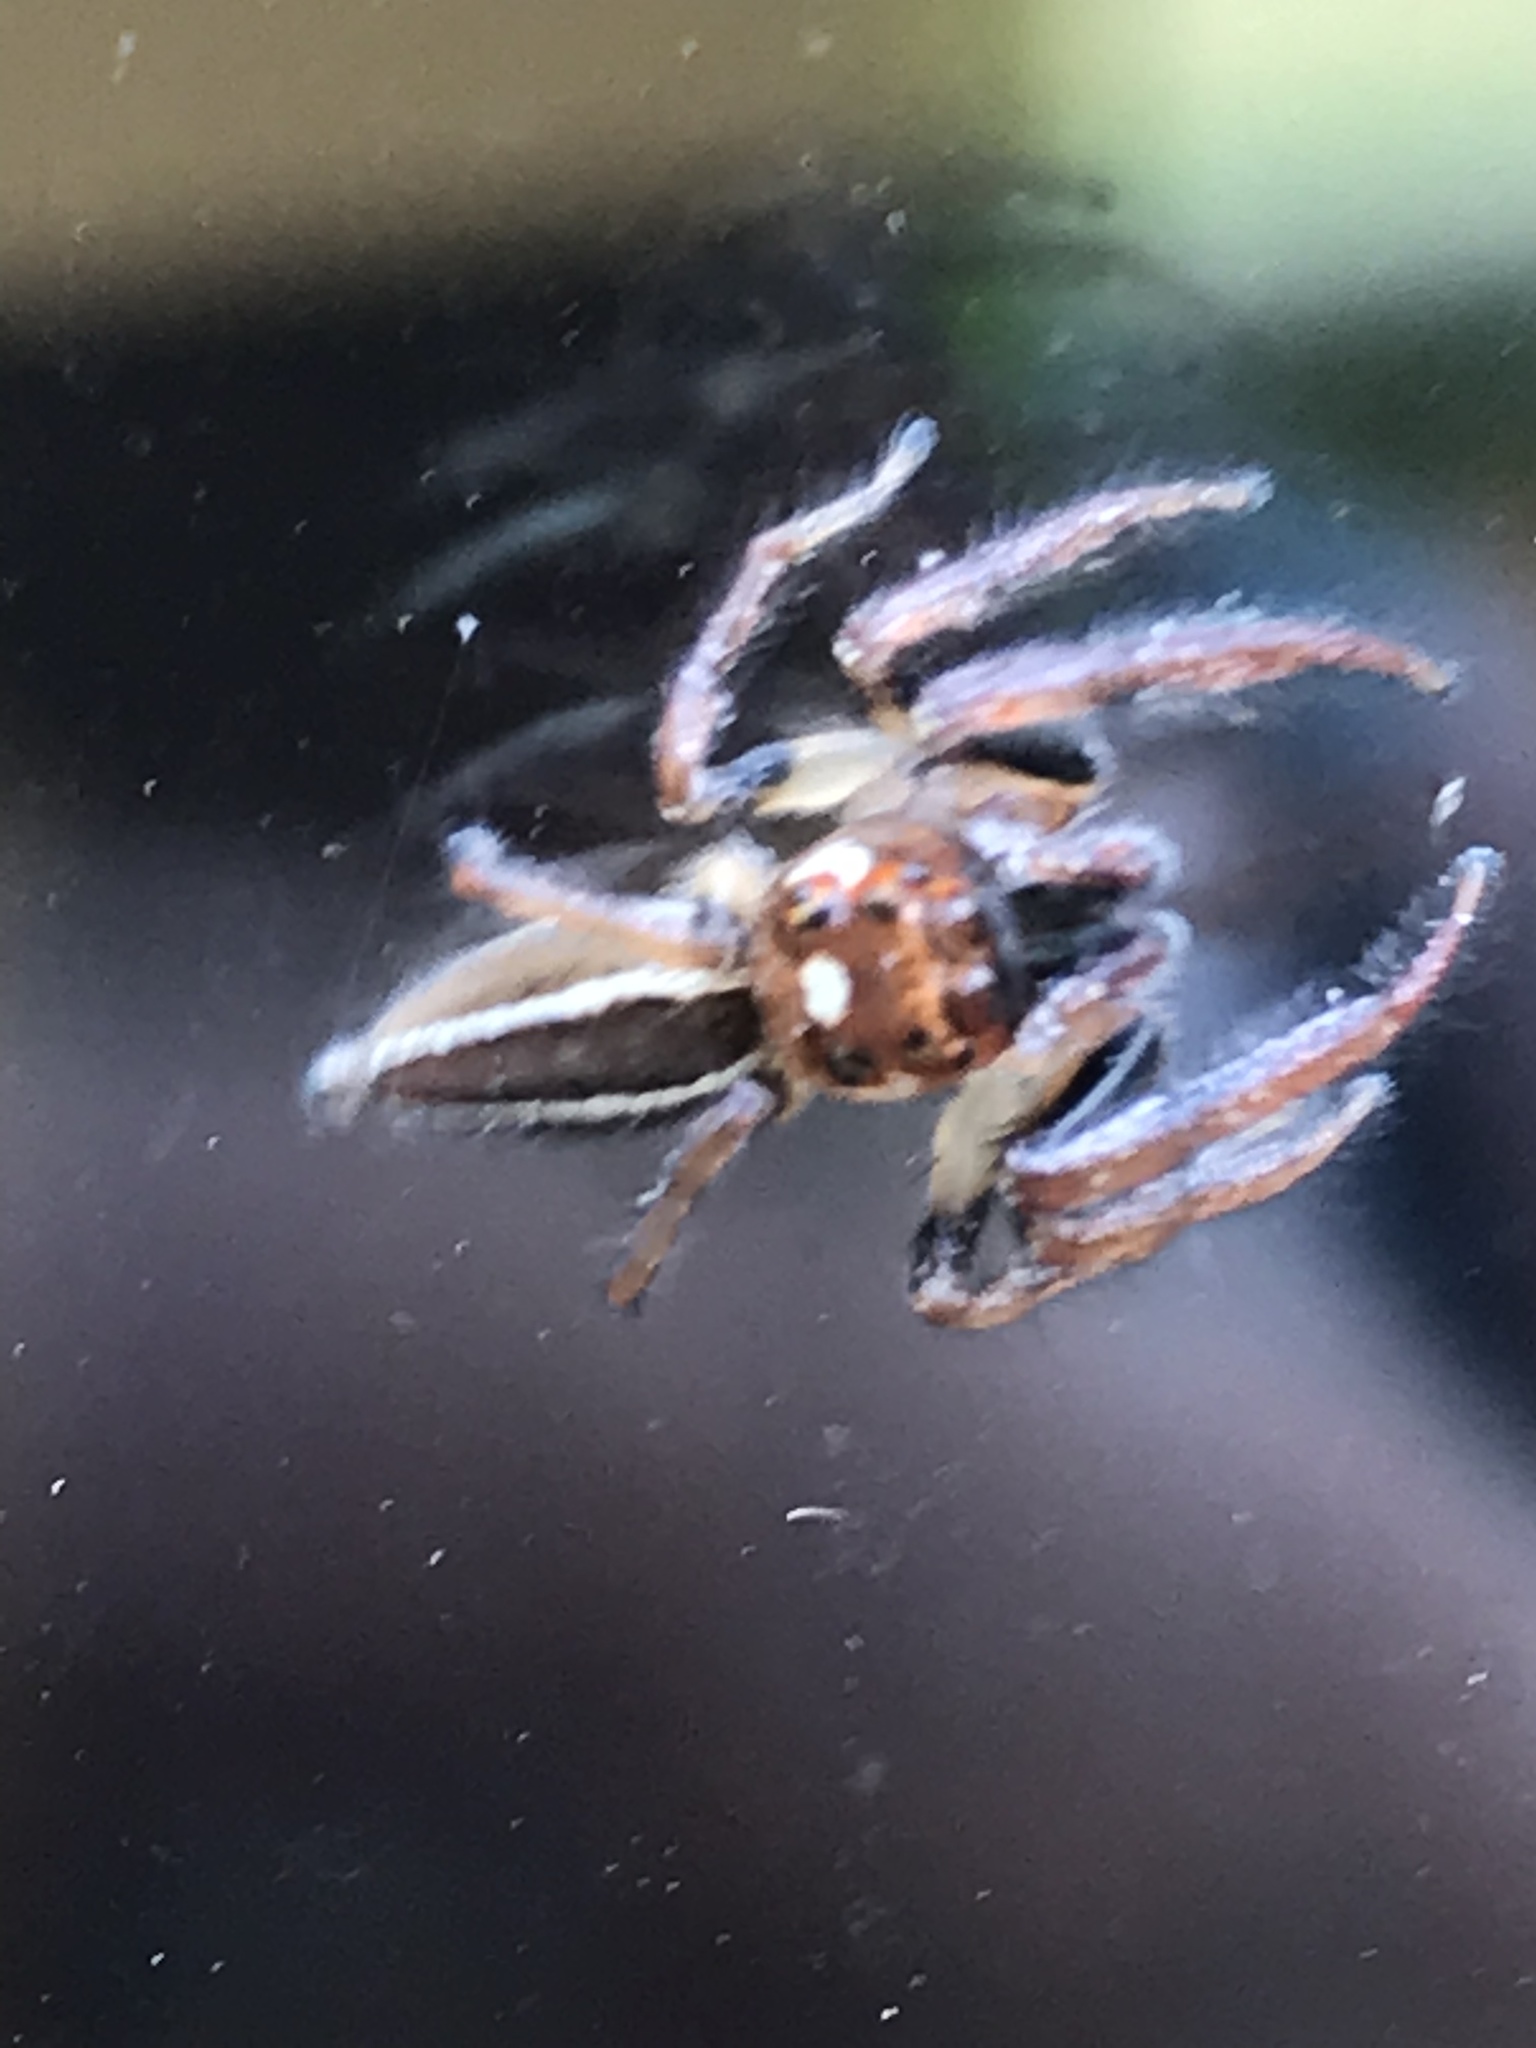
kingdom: Animalia
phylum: Arthropoda
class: Arachnida
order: Araneae
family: Salticidae
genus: Colonus
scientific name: Colonus sylvanus
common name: Jumping spiders
